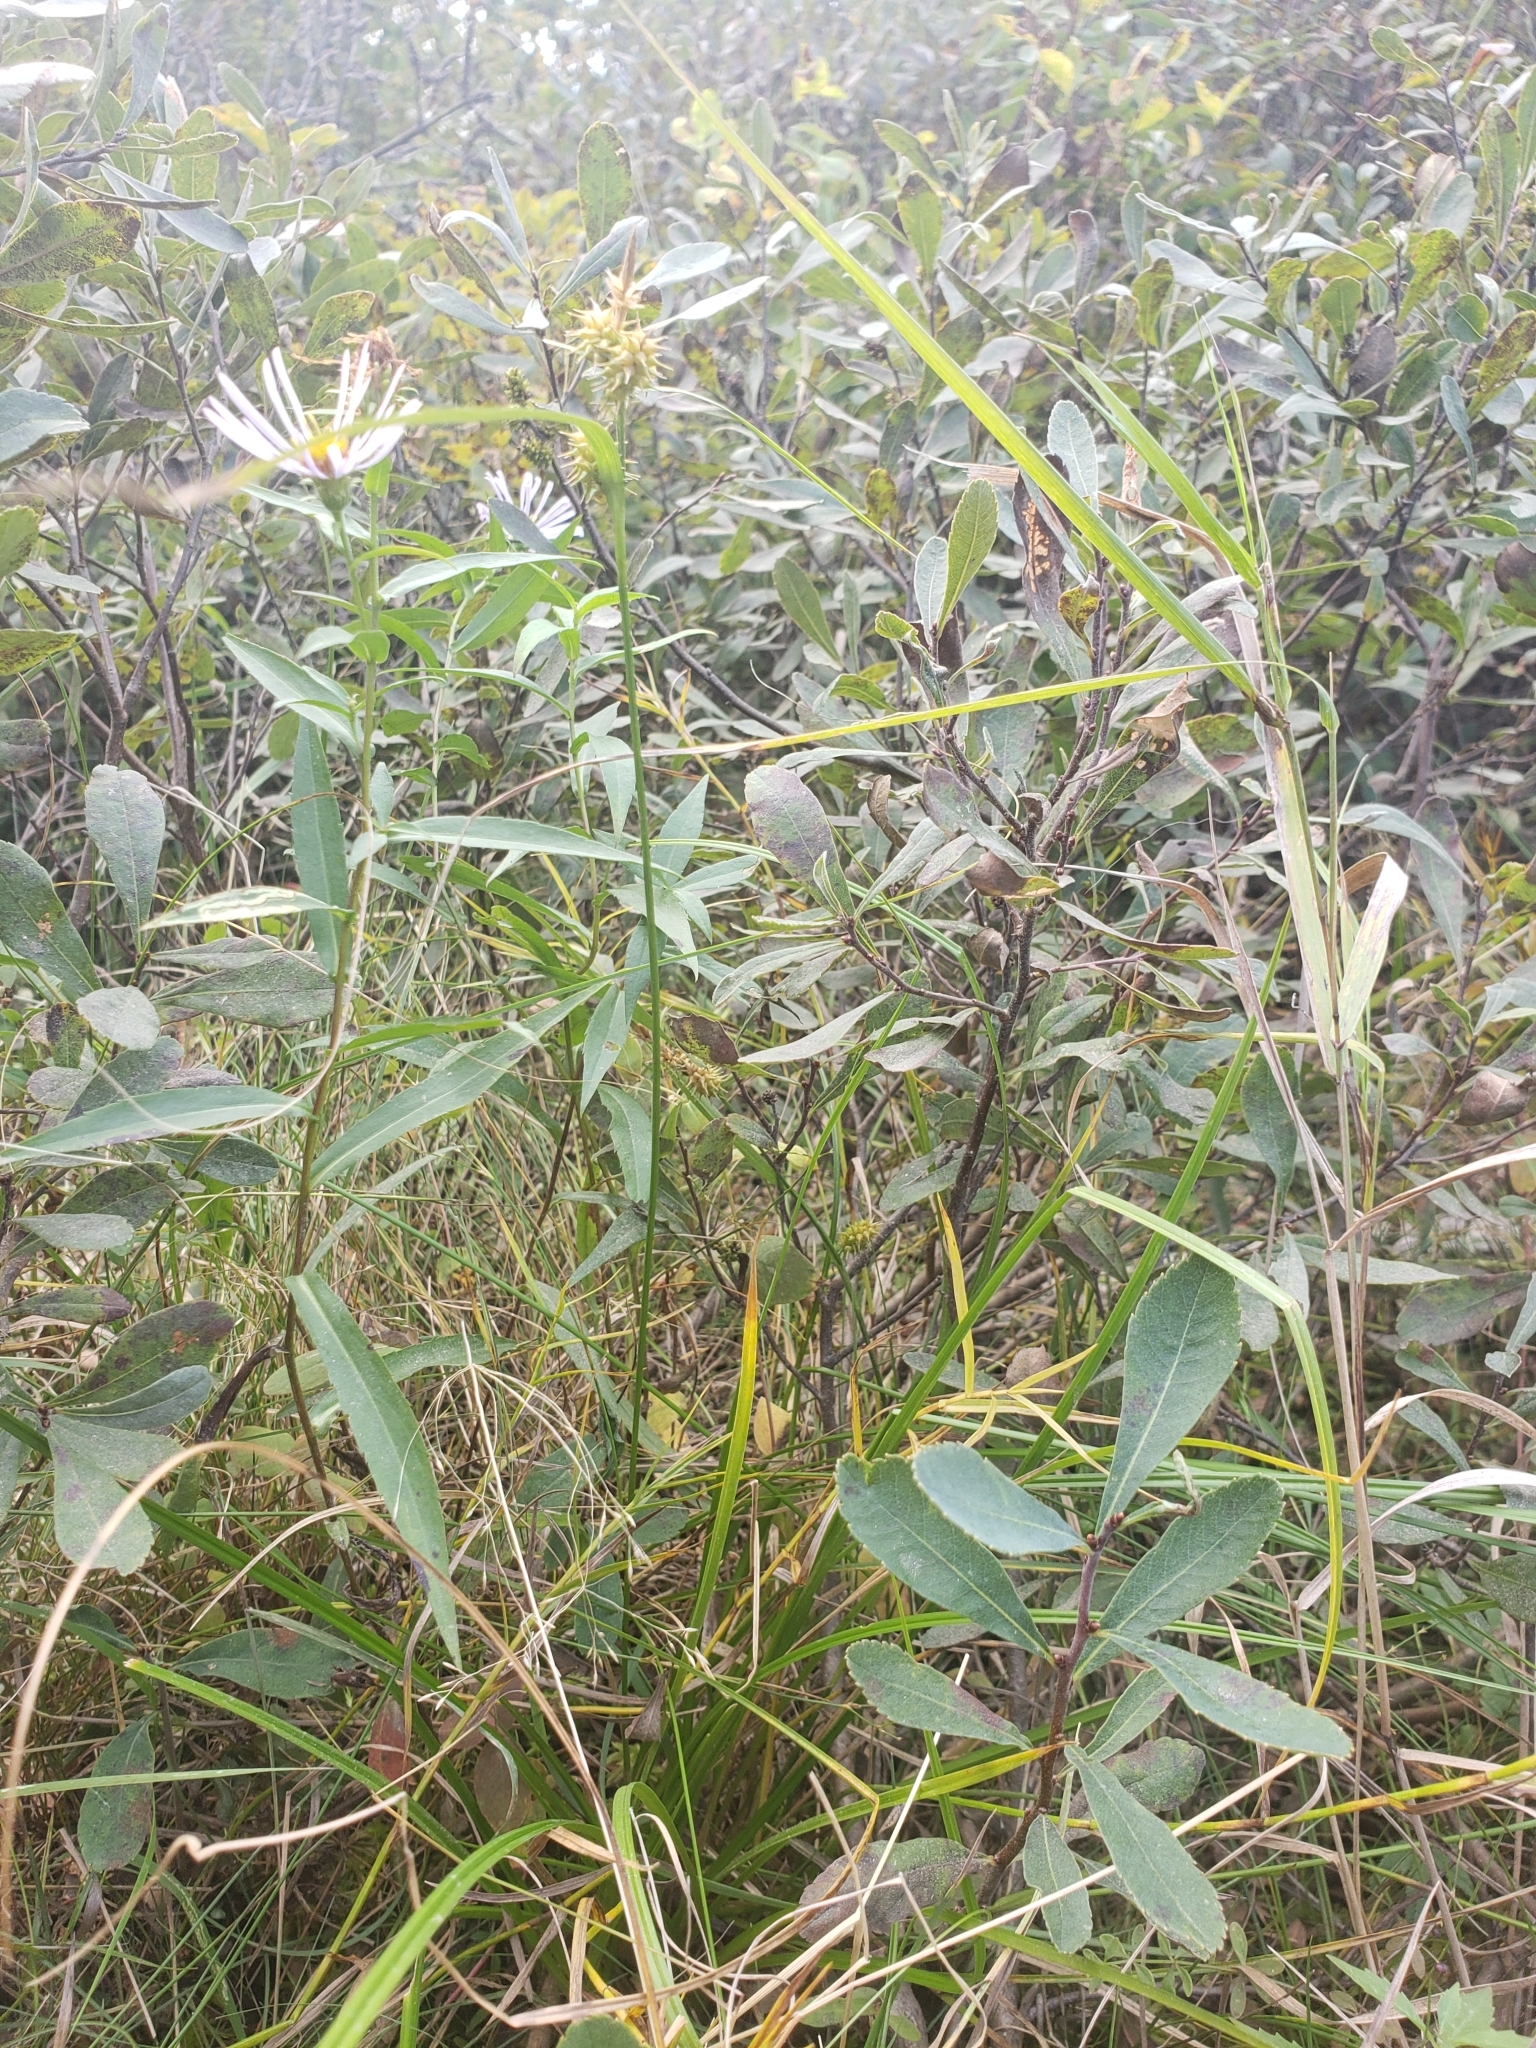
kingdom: Plantae
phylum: Tracheophyta
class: Liliopsida
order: Poales
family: Cyperaceae
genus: Carex
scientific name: Carex cryptolepis
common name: Northeastern sedge
